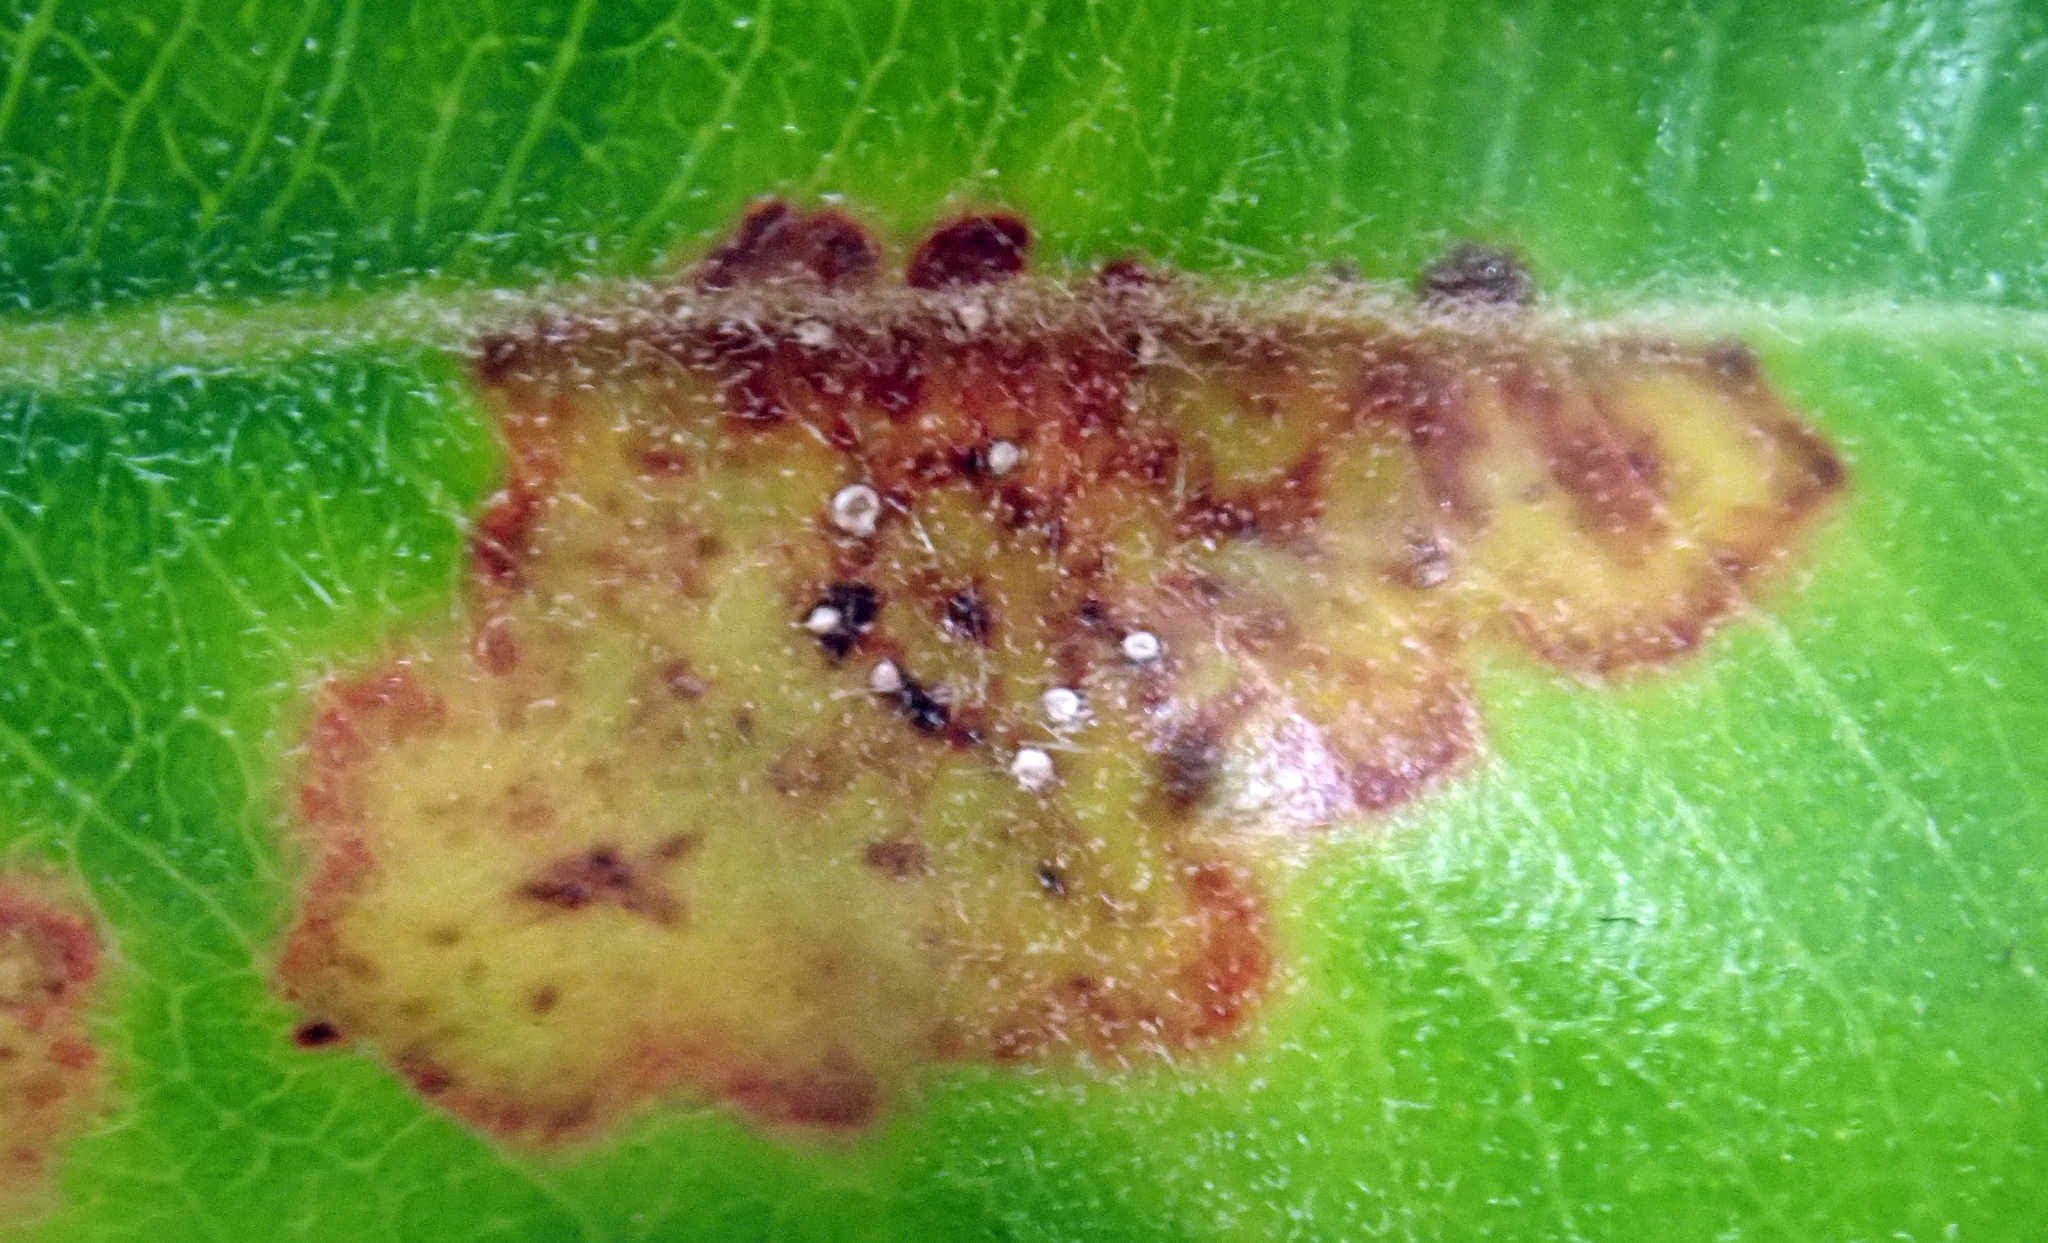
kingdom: Fungi
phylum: Basidiomycota
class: Pucciniomycetes
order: Pucciniales
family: Sphaerophragmiaceae
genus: Austropuccinia
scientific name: Austropuccinia psidii
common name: Myrtle rust
